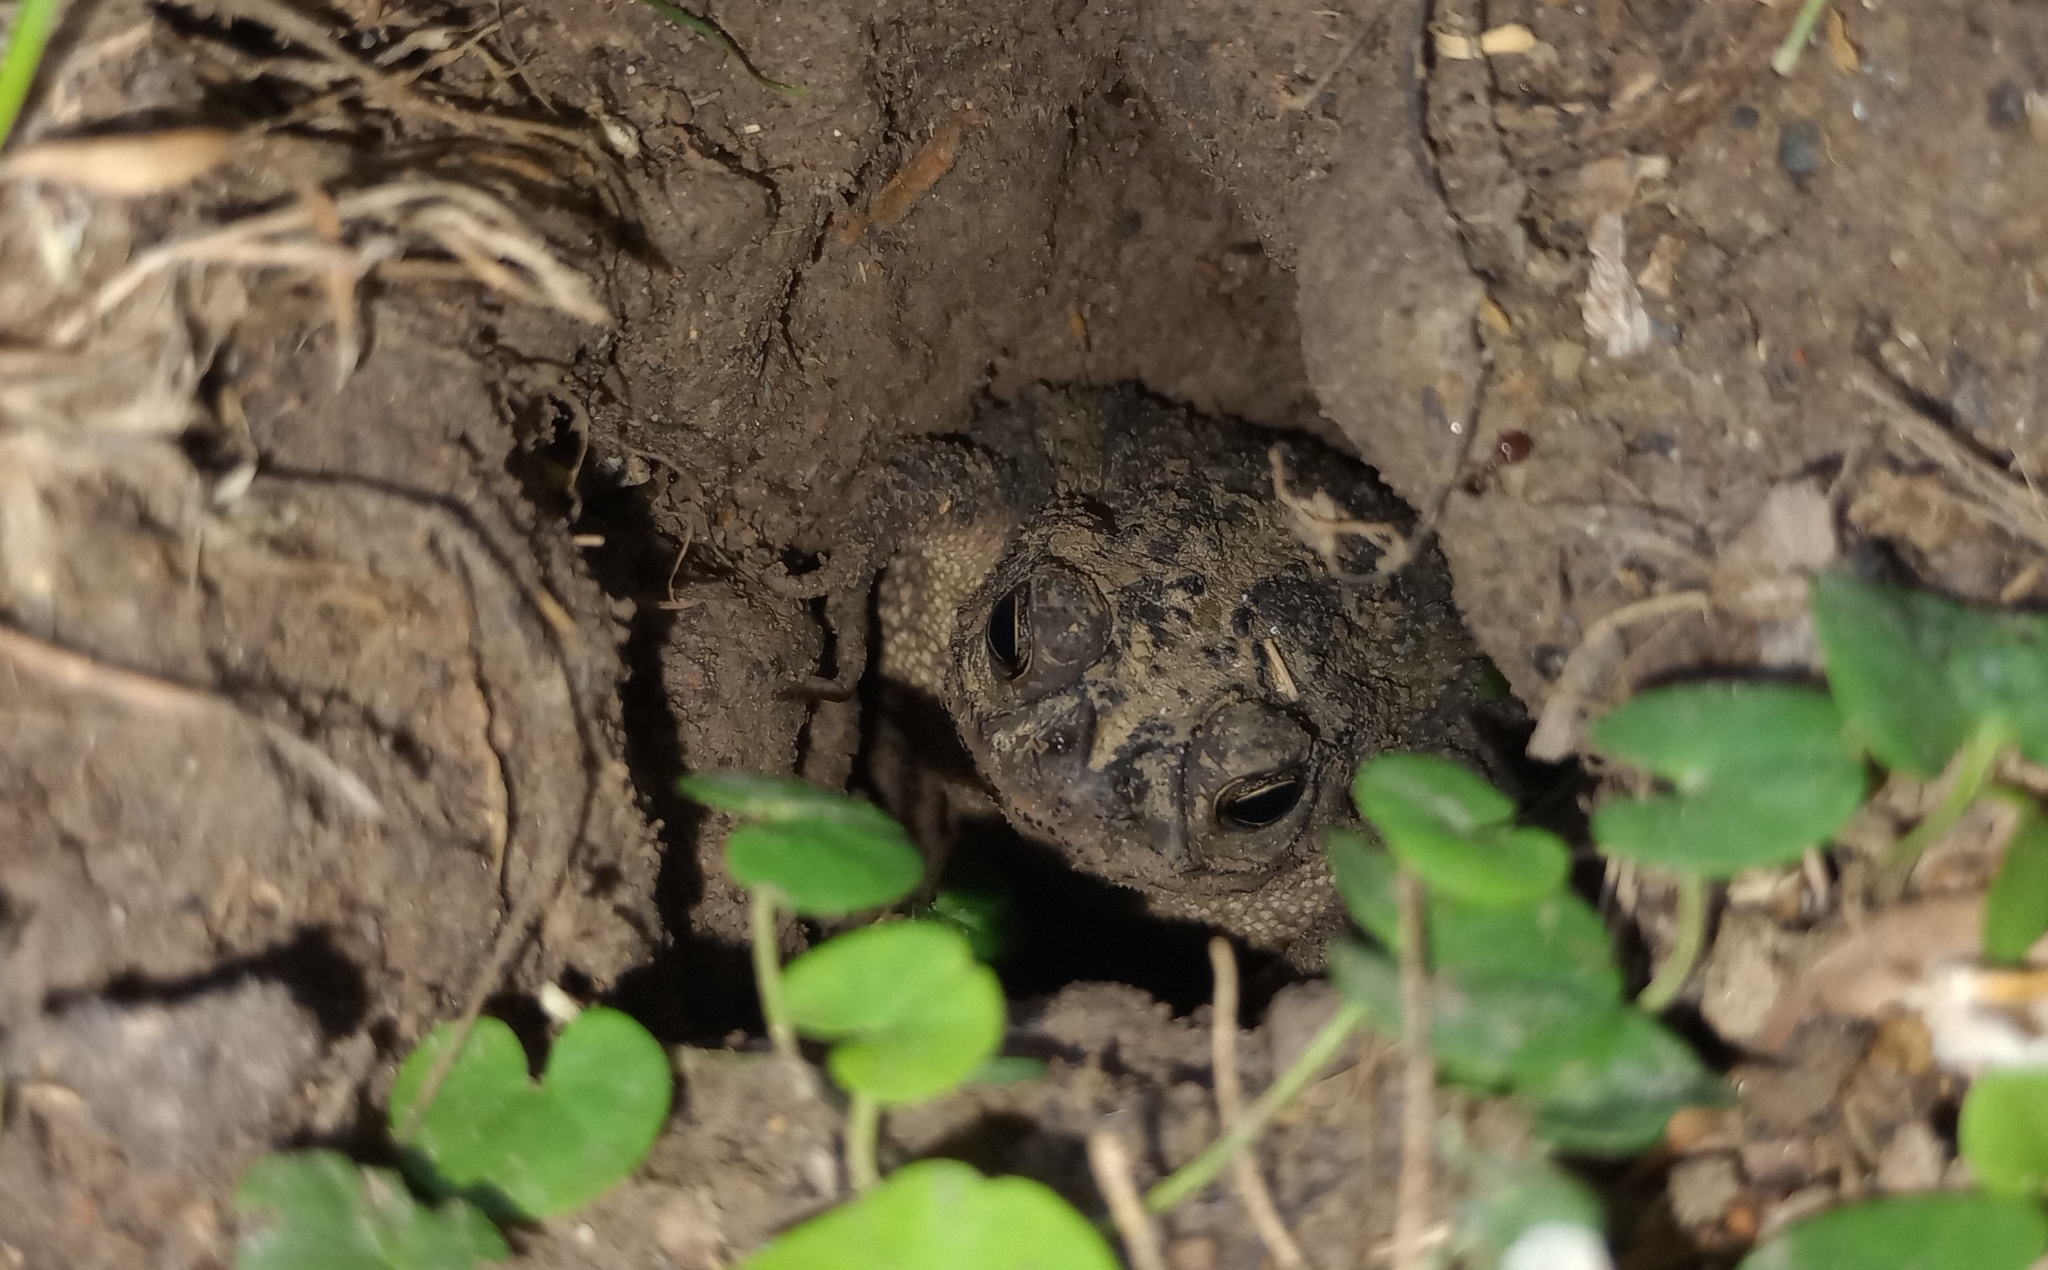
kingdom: Animalia
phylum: Chordata
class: Amphibia
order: Anura
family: Bufonidae
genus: Rhinella
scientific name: Rhinella dorbignyi
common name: D´orbigny’s toad
